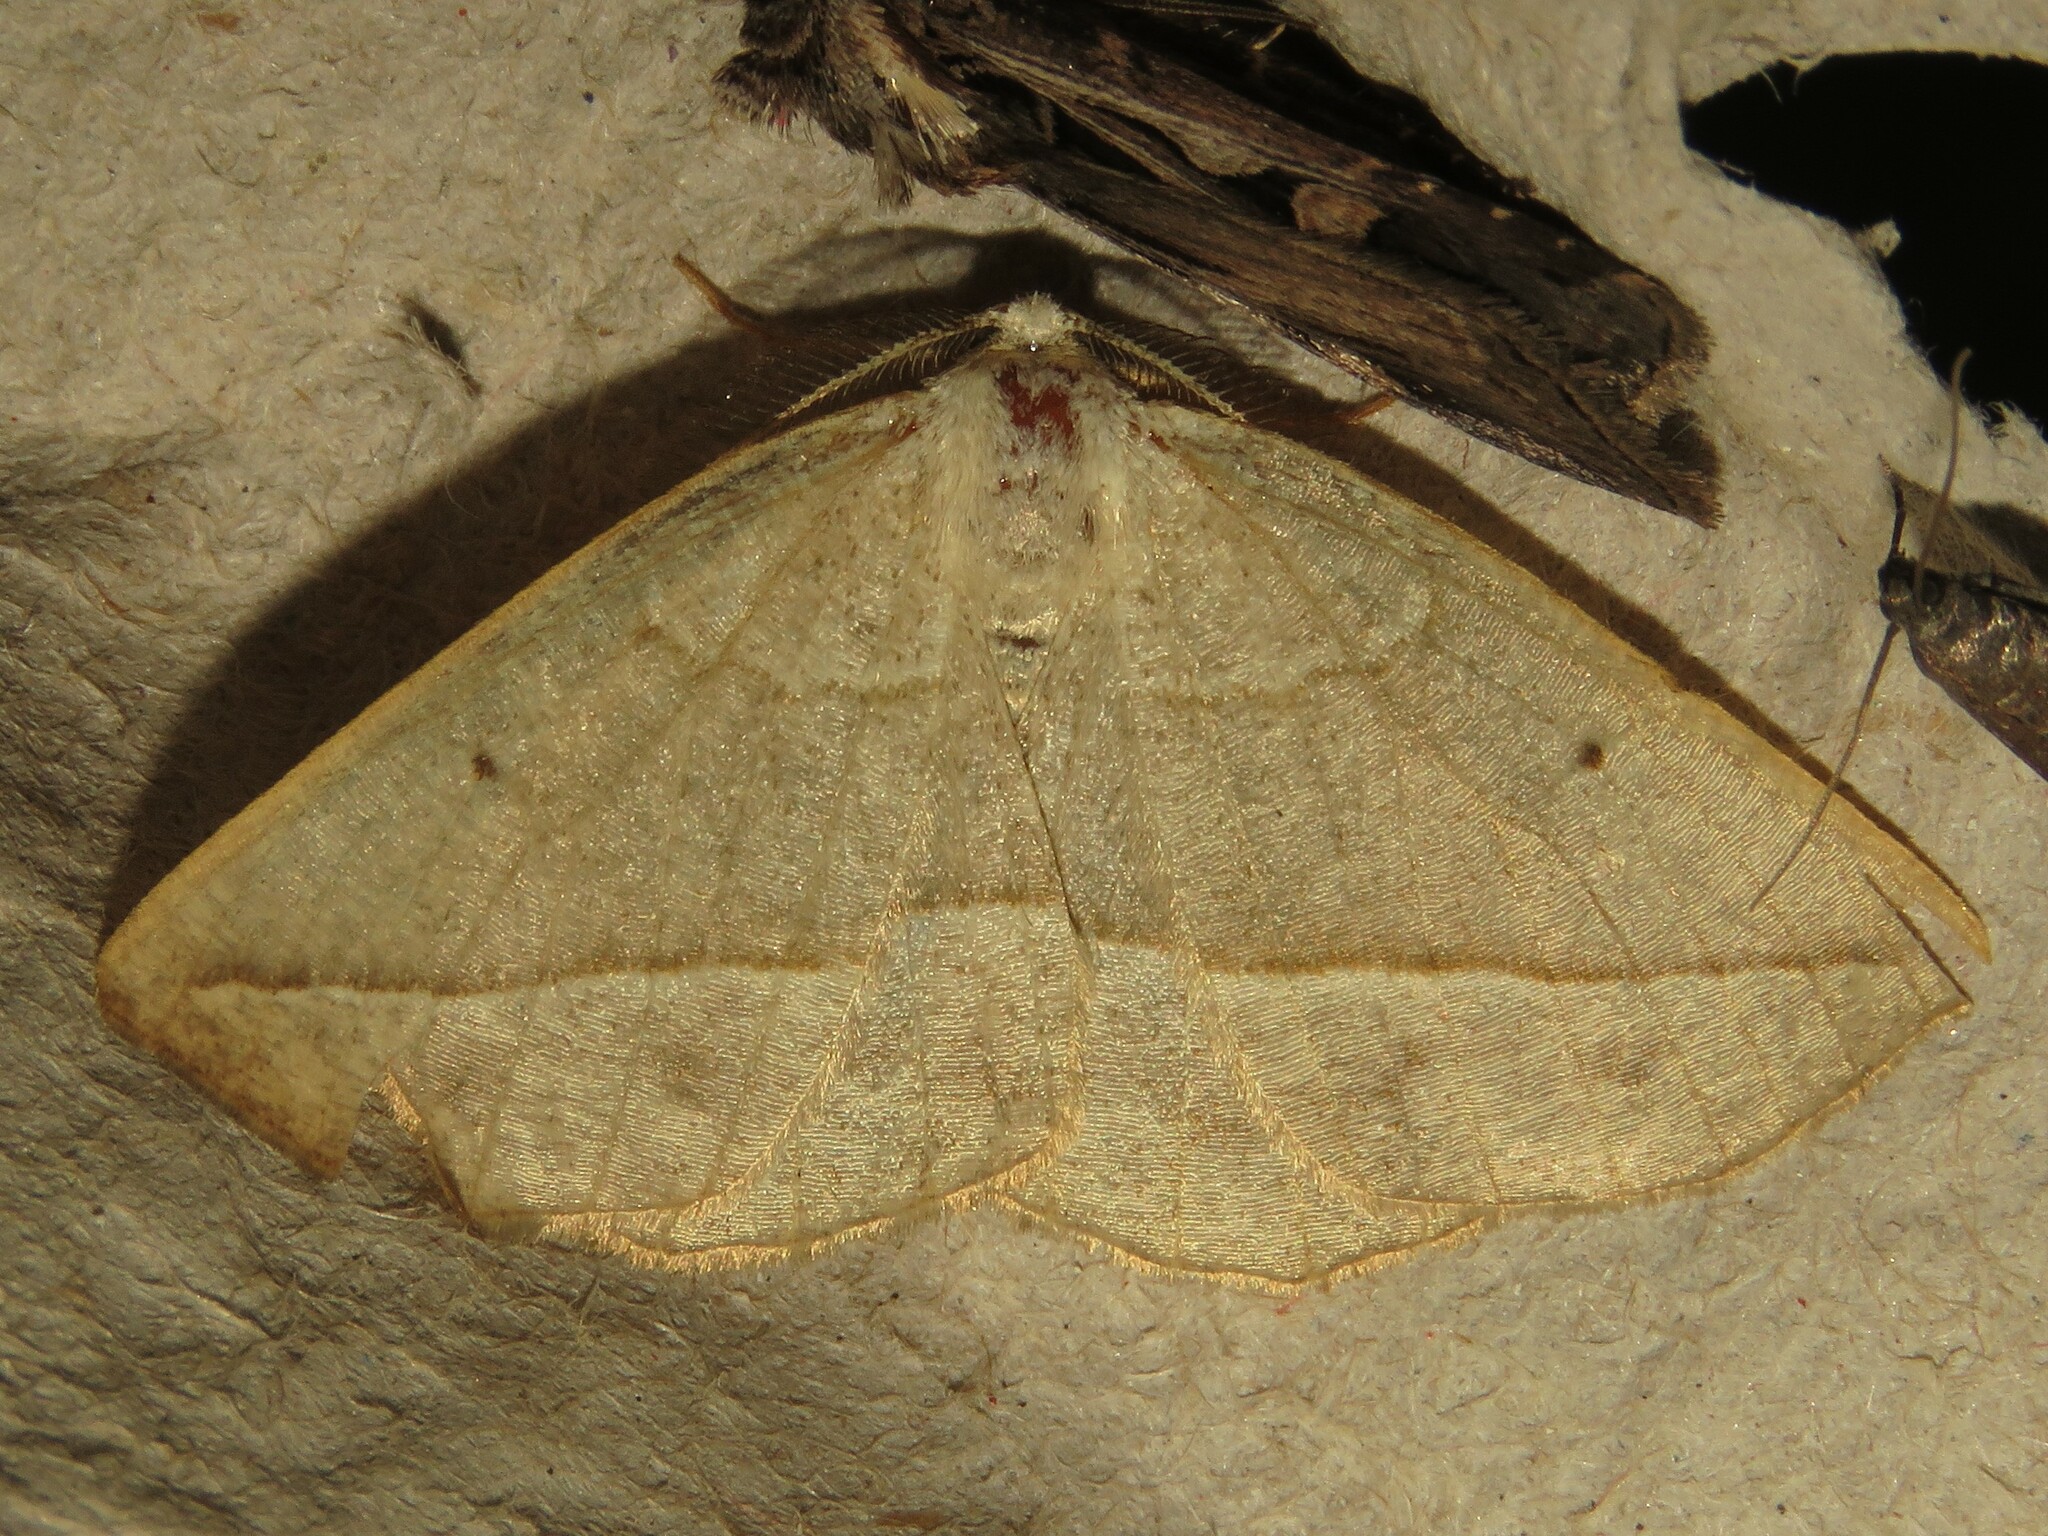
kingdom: Animalia
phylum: Arthropoda
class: Insecta
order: Lepidoptera
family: Geometridae
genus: Eusarca
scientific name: Eusarca confusaria
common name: Confused eusarca
